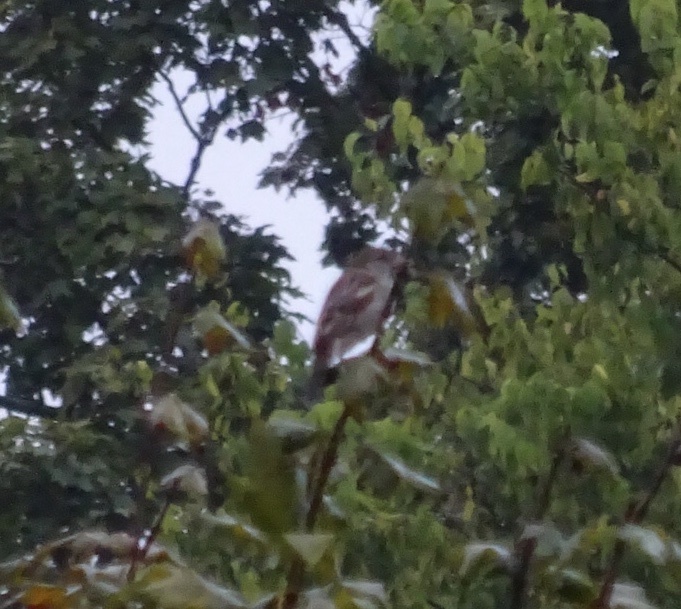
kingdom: Animalia
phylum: Chordata
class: Aves
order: Passeriformes
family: Passeridae
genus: Passer
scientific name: Passer domesticus
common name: House sparrow
